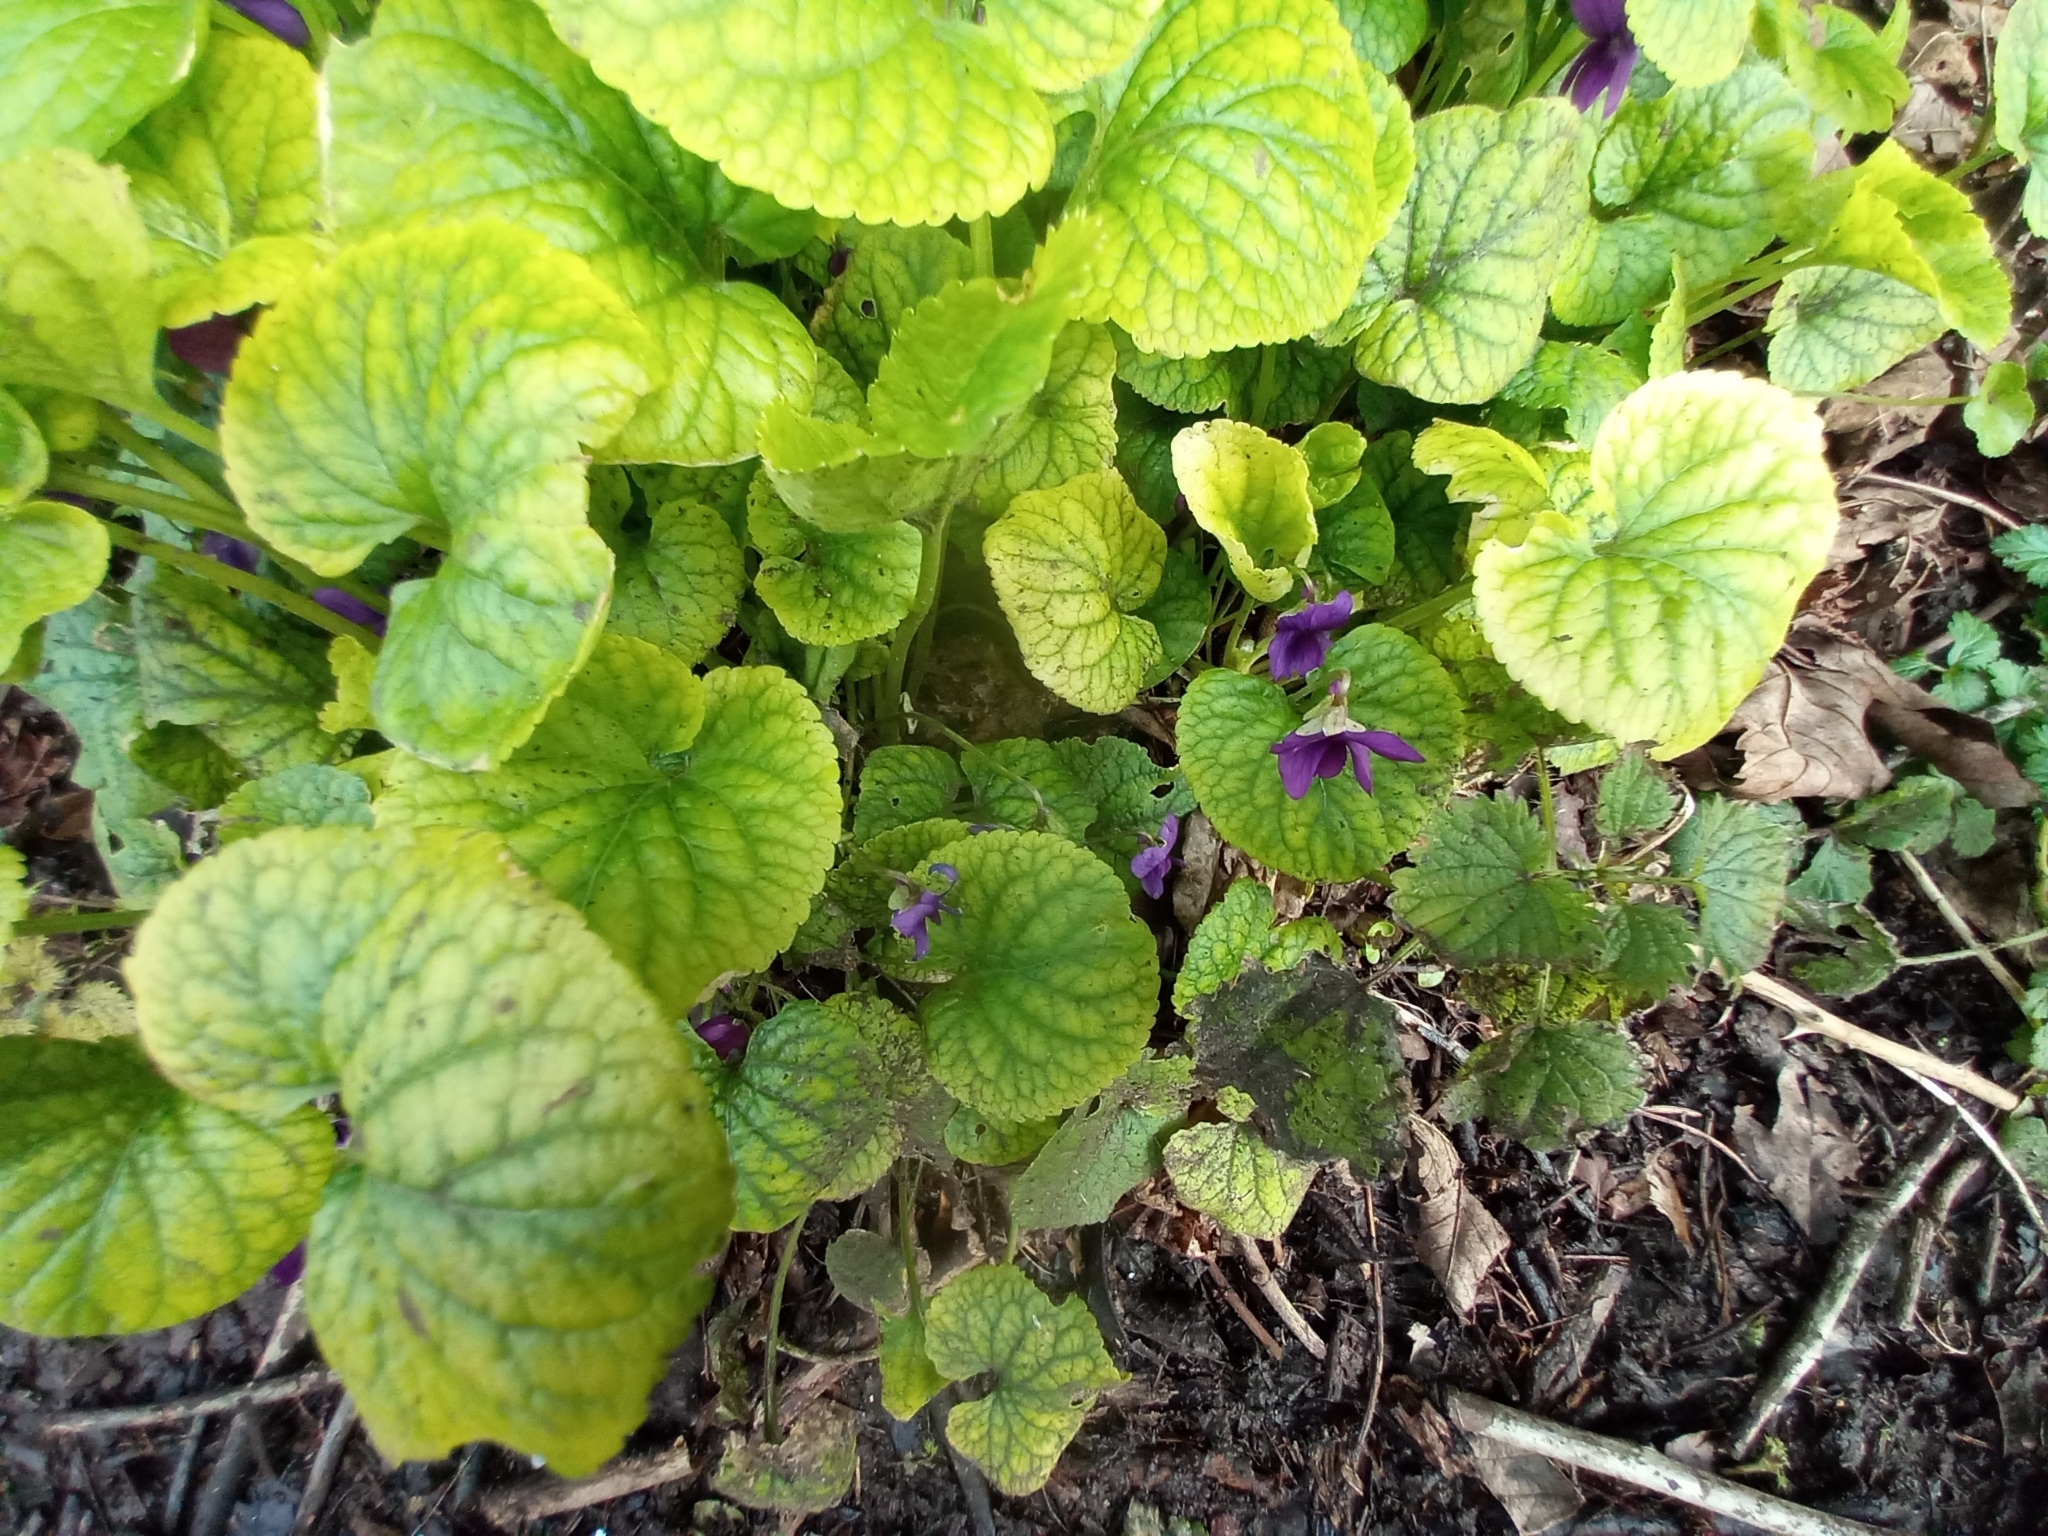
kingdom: Plantae
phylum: Tracheophyta
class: Magnoliopsida
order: Malpighiales
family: Violaceae
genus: Viola
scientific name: Viola odorata
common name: Sweet violet
